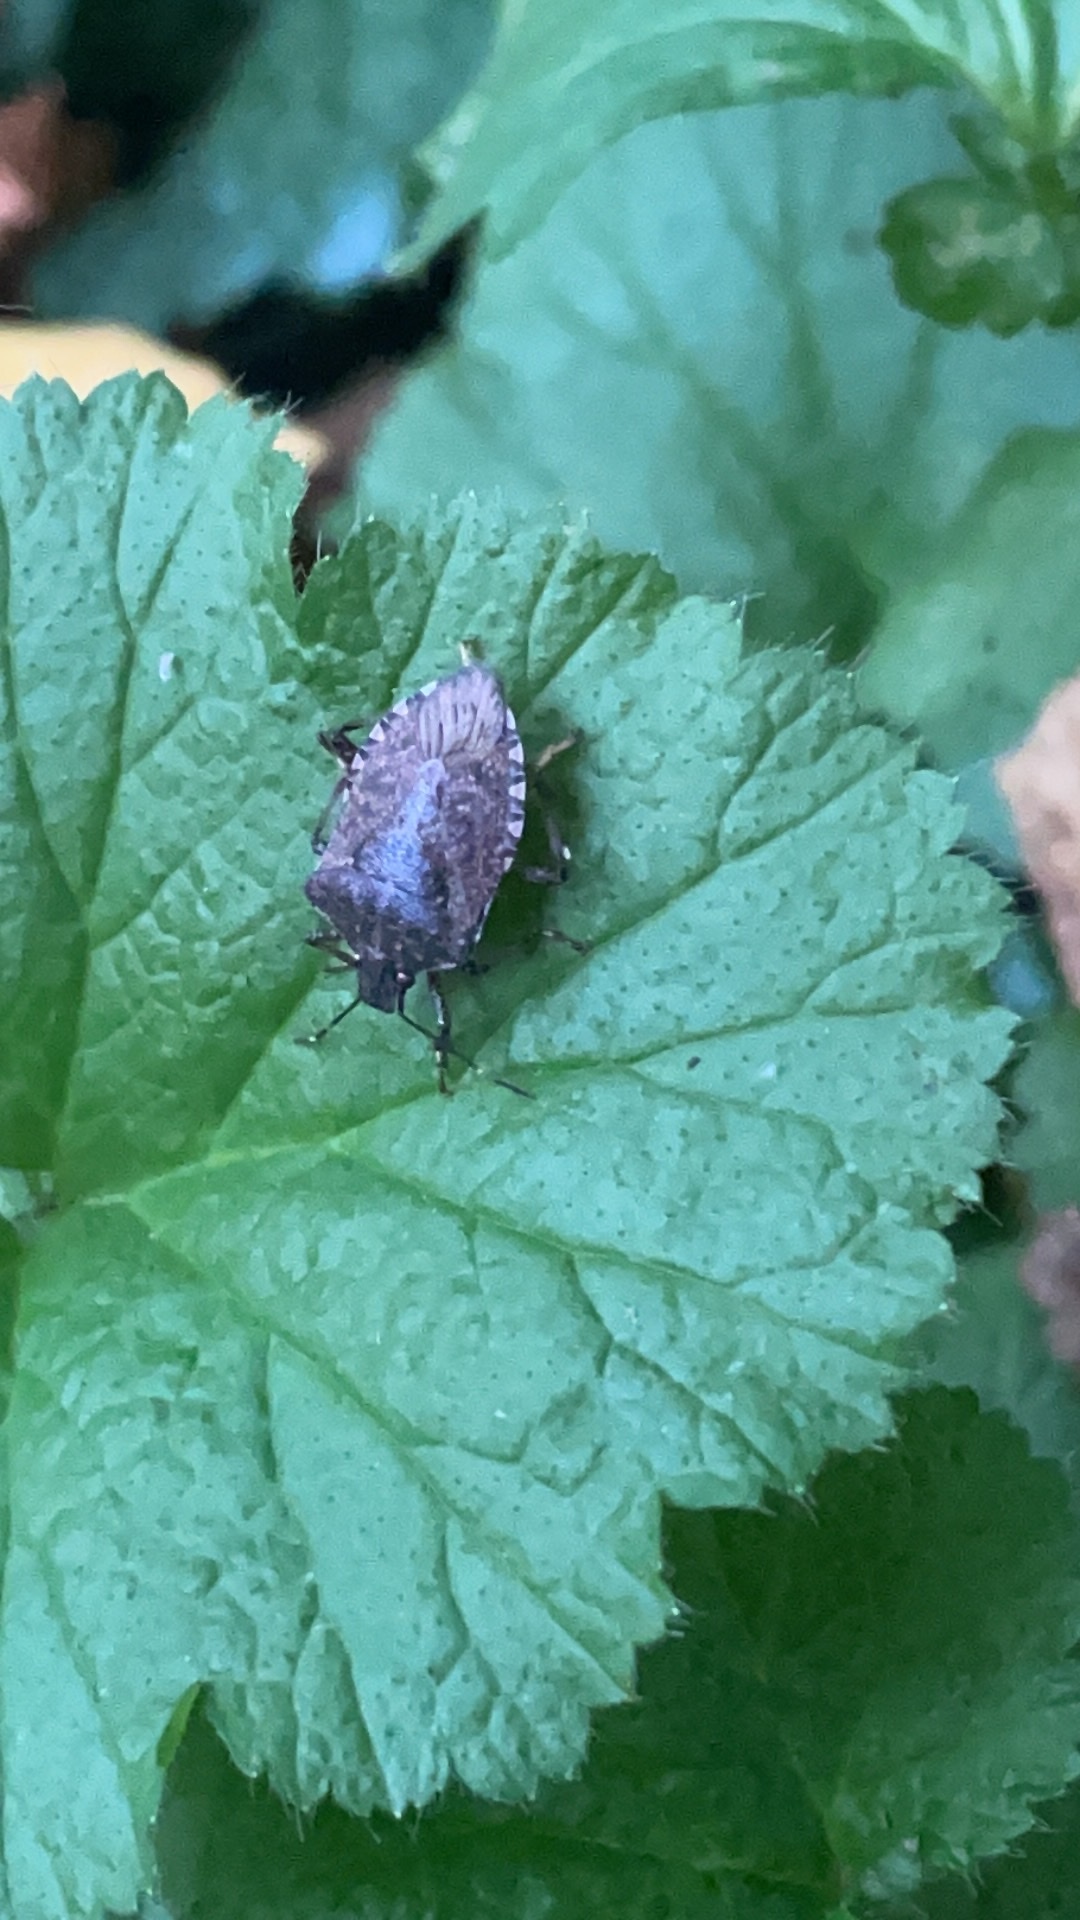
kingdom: Animalia
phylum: Arthropoda
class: Insecta
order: Hemiptera
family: Pentatomidae
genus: Halyomorpha
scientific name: Halyomorpha halys
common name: Brown marmorated stink bug
